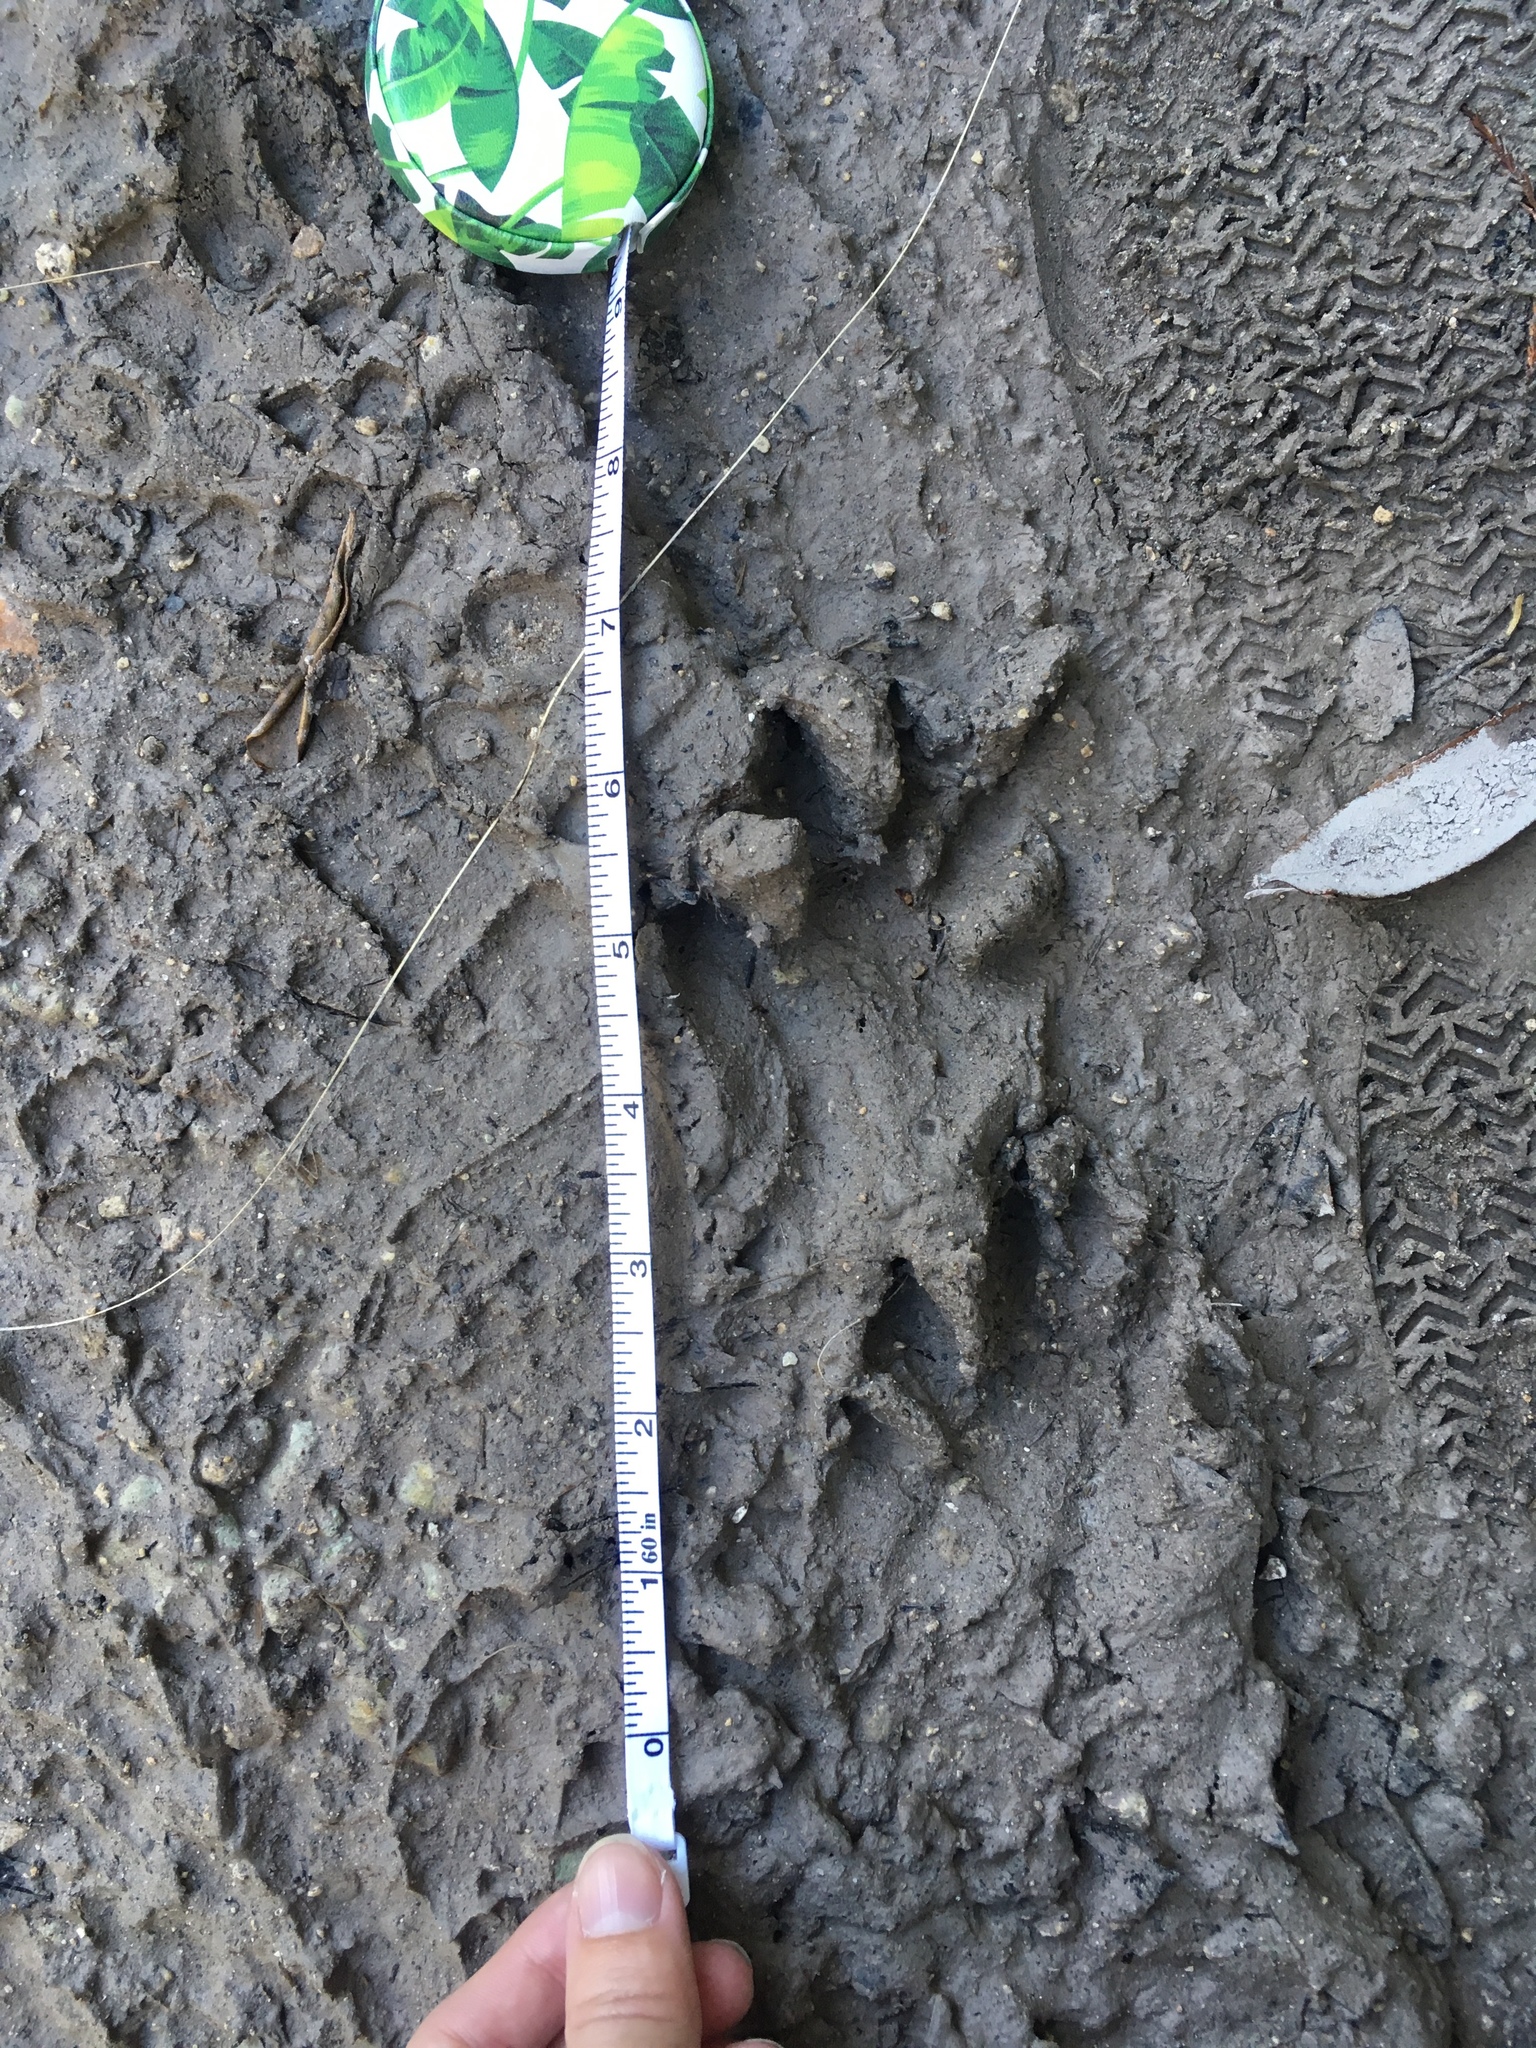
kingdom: Animalia
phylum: Chordata
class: Mammalia
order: Carnivora
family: Procyonidae
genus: Procyon
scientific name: Procyon lotor
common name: Raccoon
